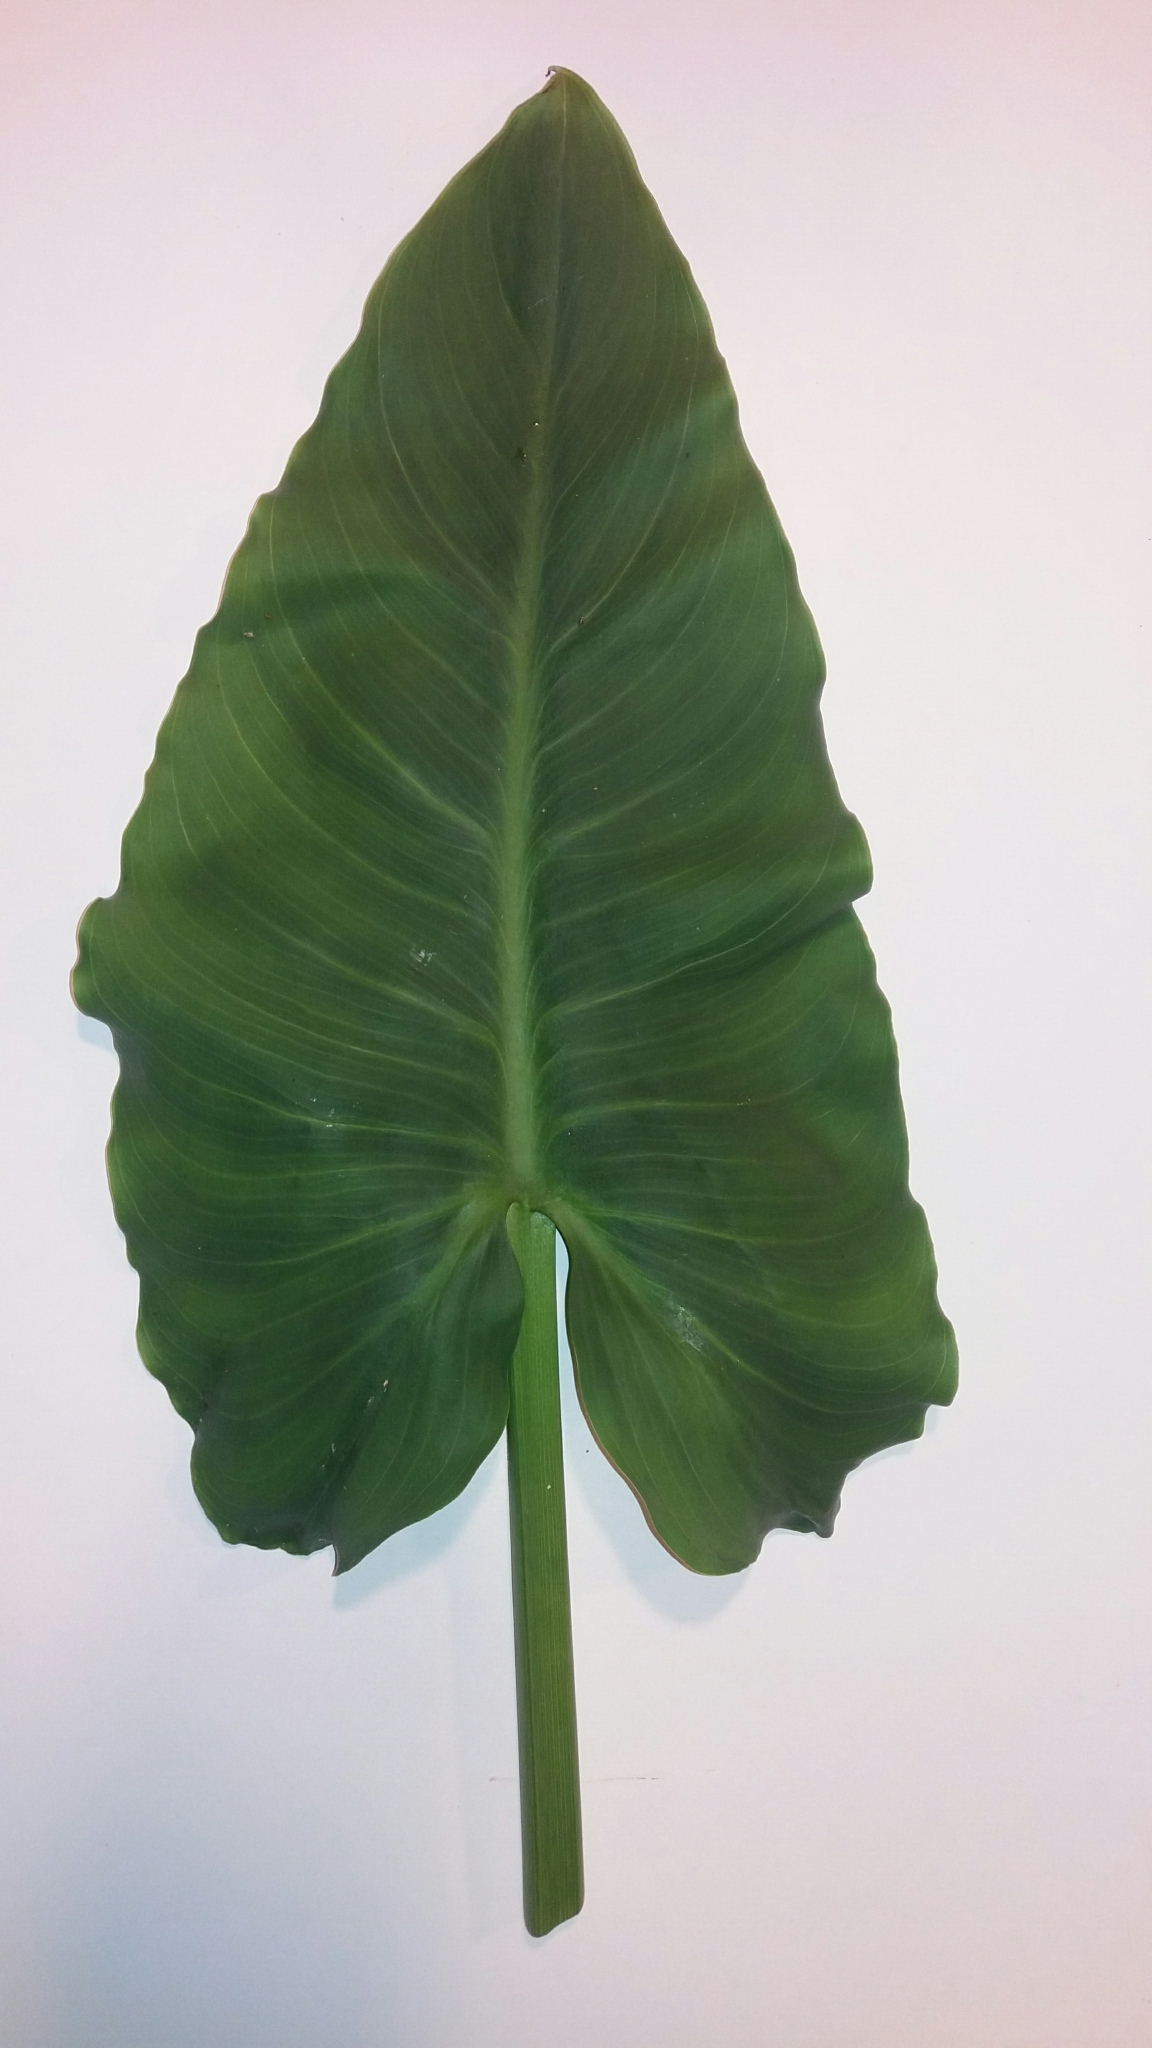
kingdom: Plantae
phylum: Tracheophyta
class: Liliopsida
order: Alismatales
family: Araceae
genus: Zantedeschia
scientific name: Zantedeschia aethiopica
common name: Altar-lily
